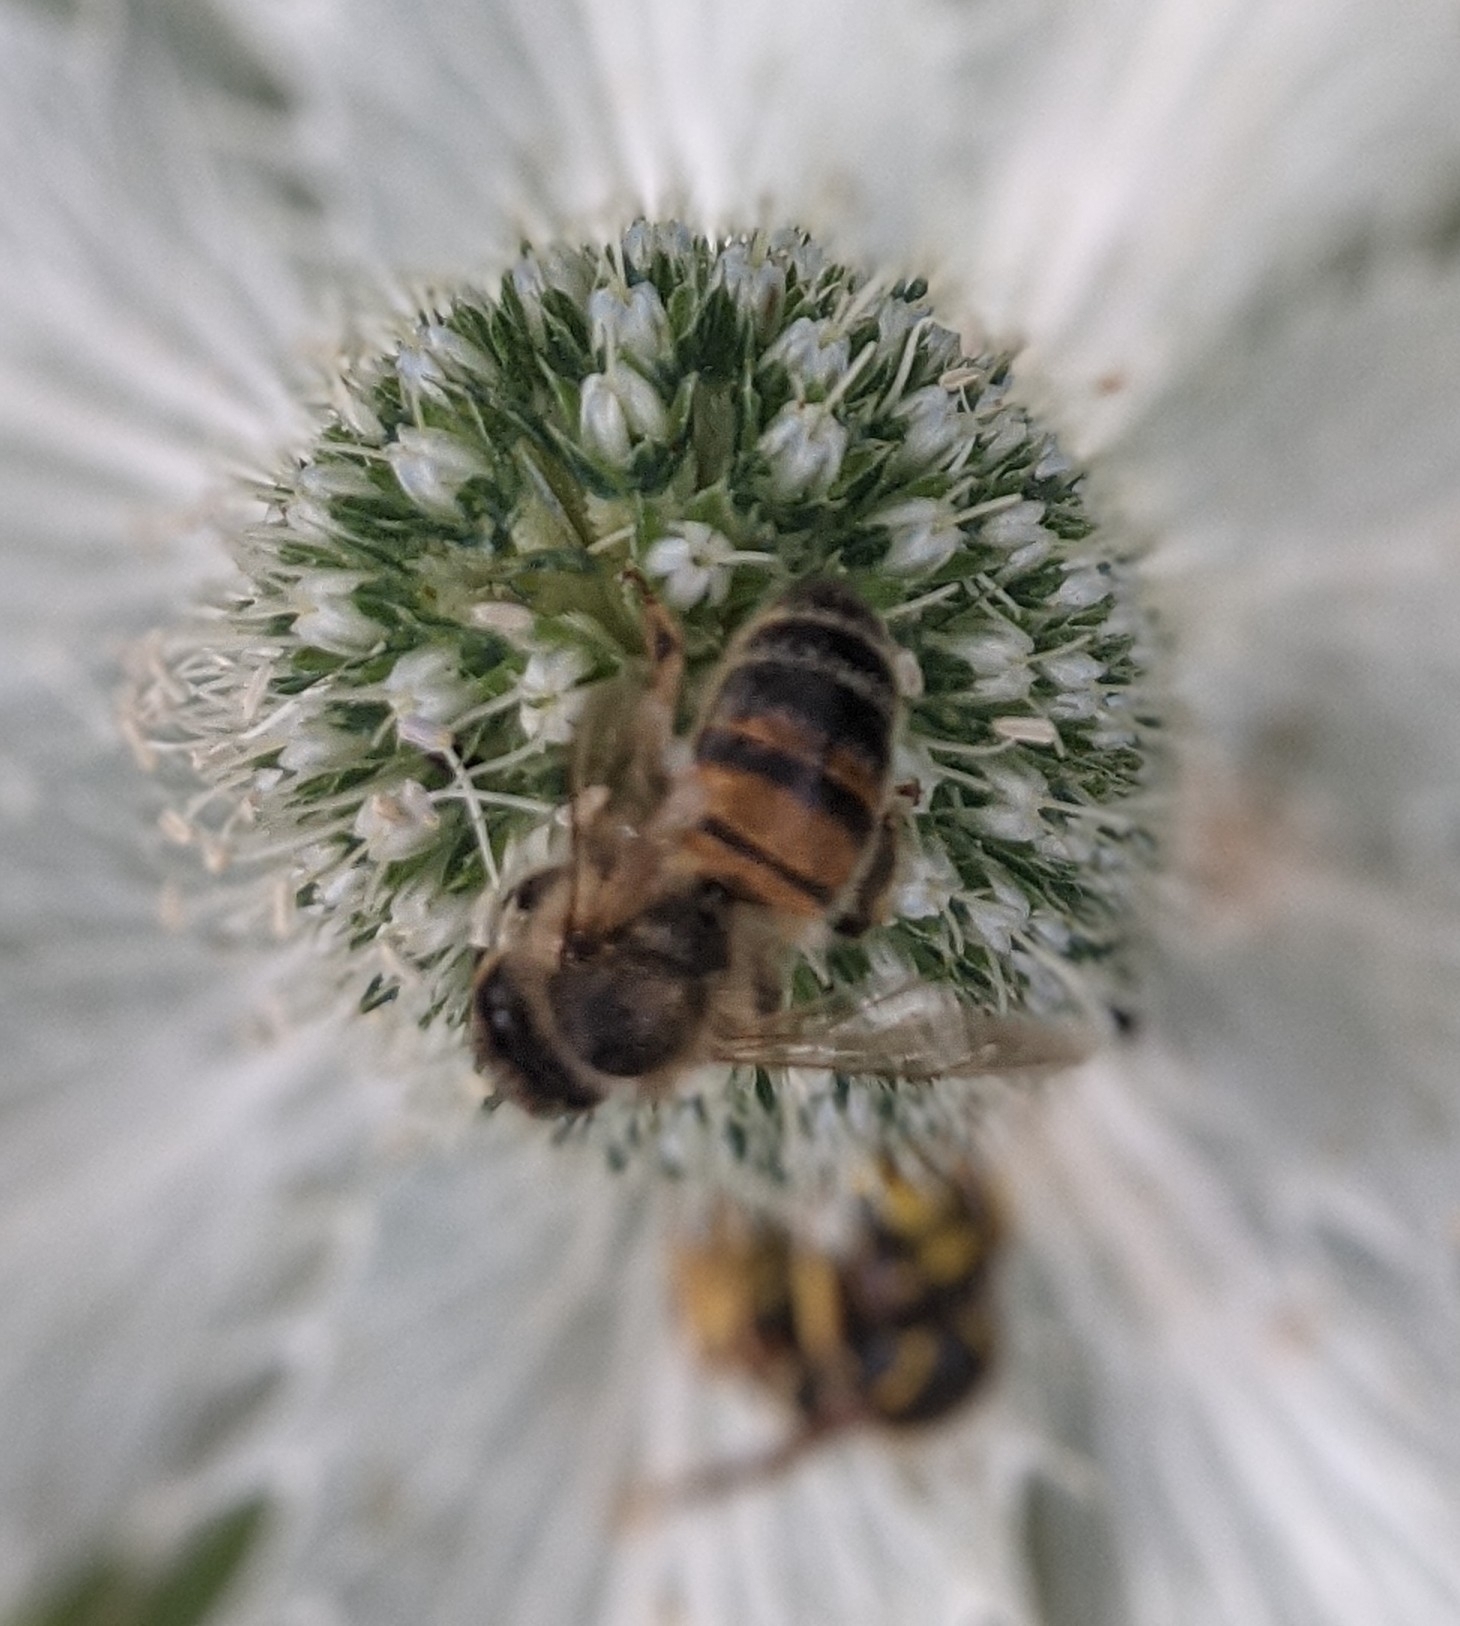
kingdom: Animalia
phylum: Arthropoda
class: Insecta
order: Hymenoptera
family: Apidae
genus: Apis
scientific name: Apis mellifera
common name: Honey bee
